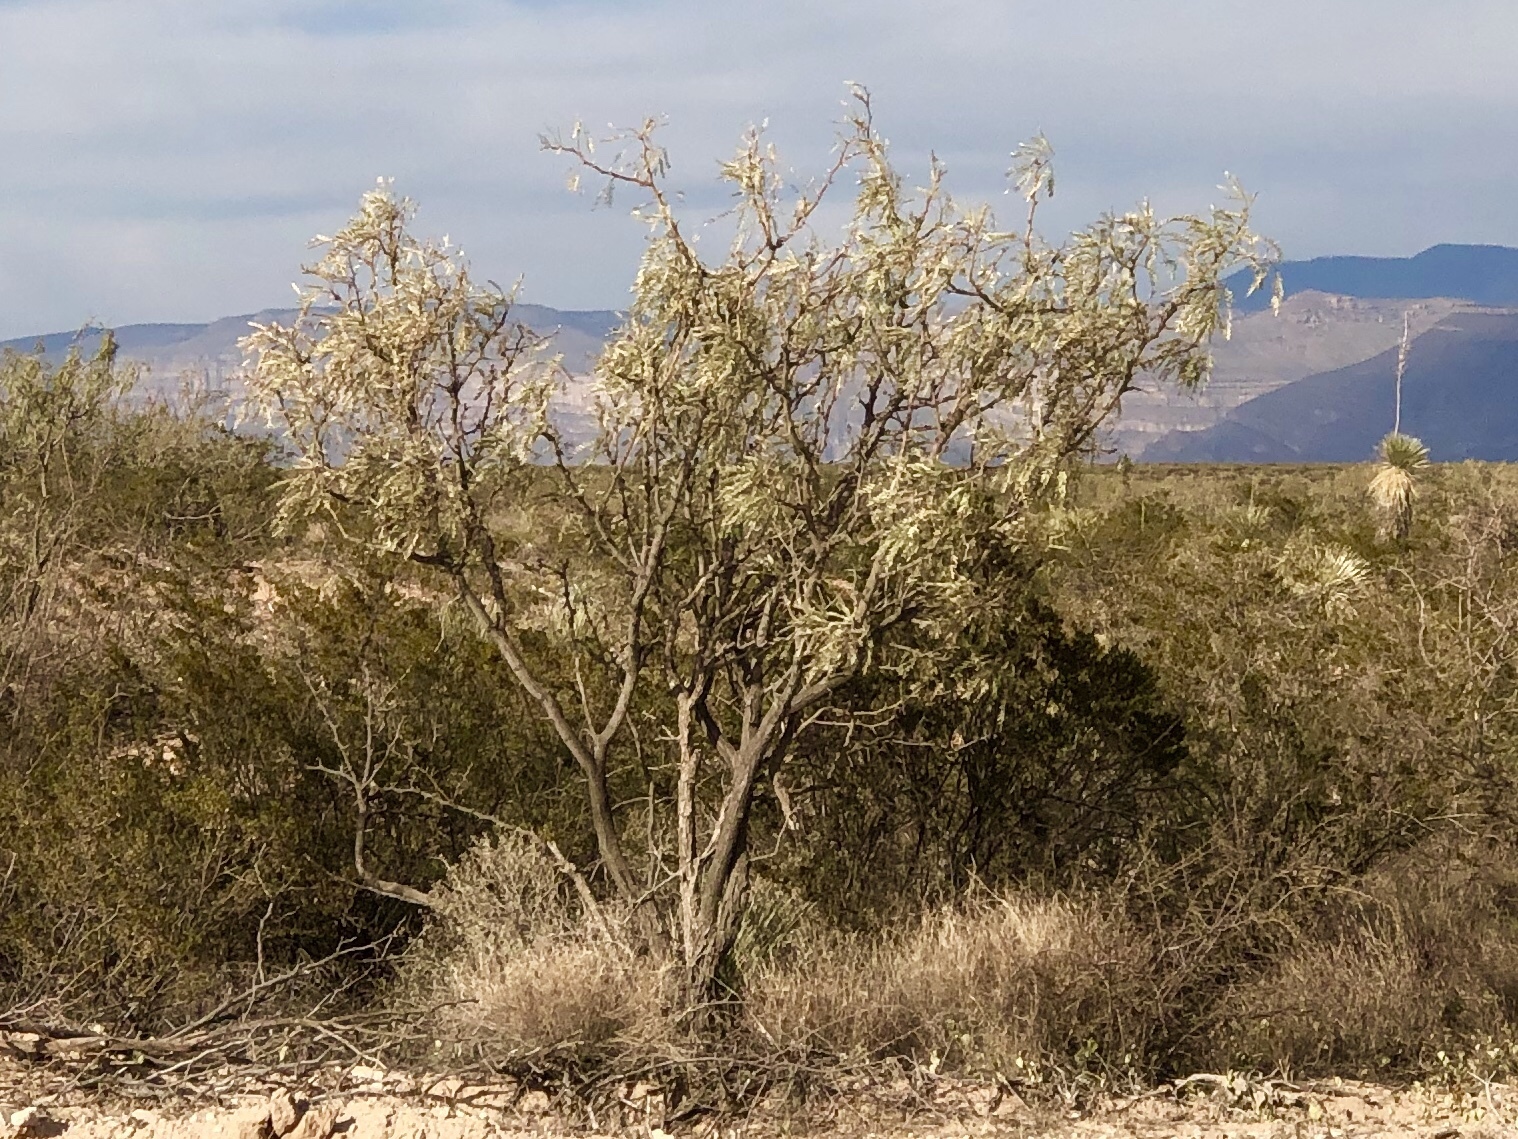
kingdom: Plantae
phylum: Tracheophyta
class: Magnoliopsida
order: Fabales
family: Fabaceae
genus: Prosopis
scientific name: Prosopis glandulosa
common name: Honey mesquite
